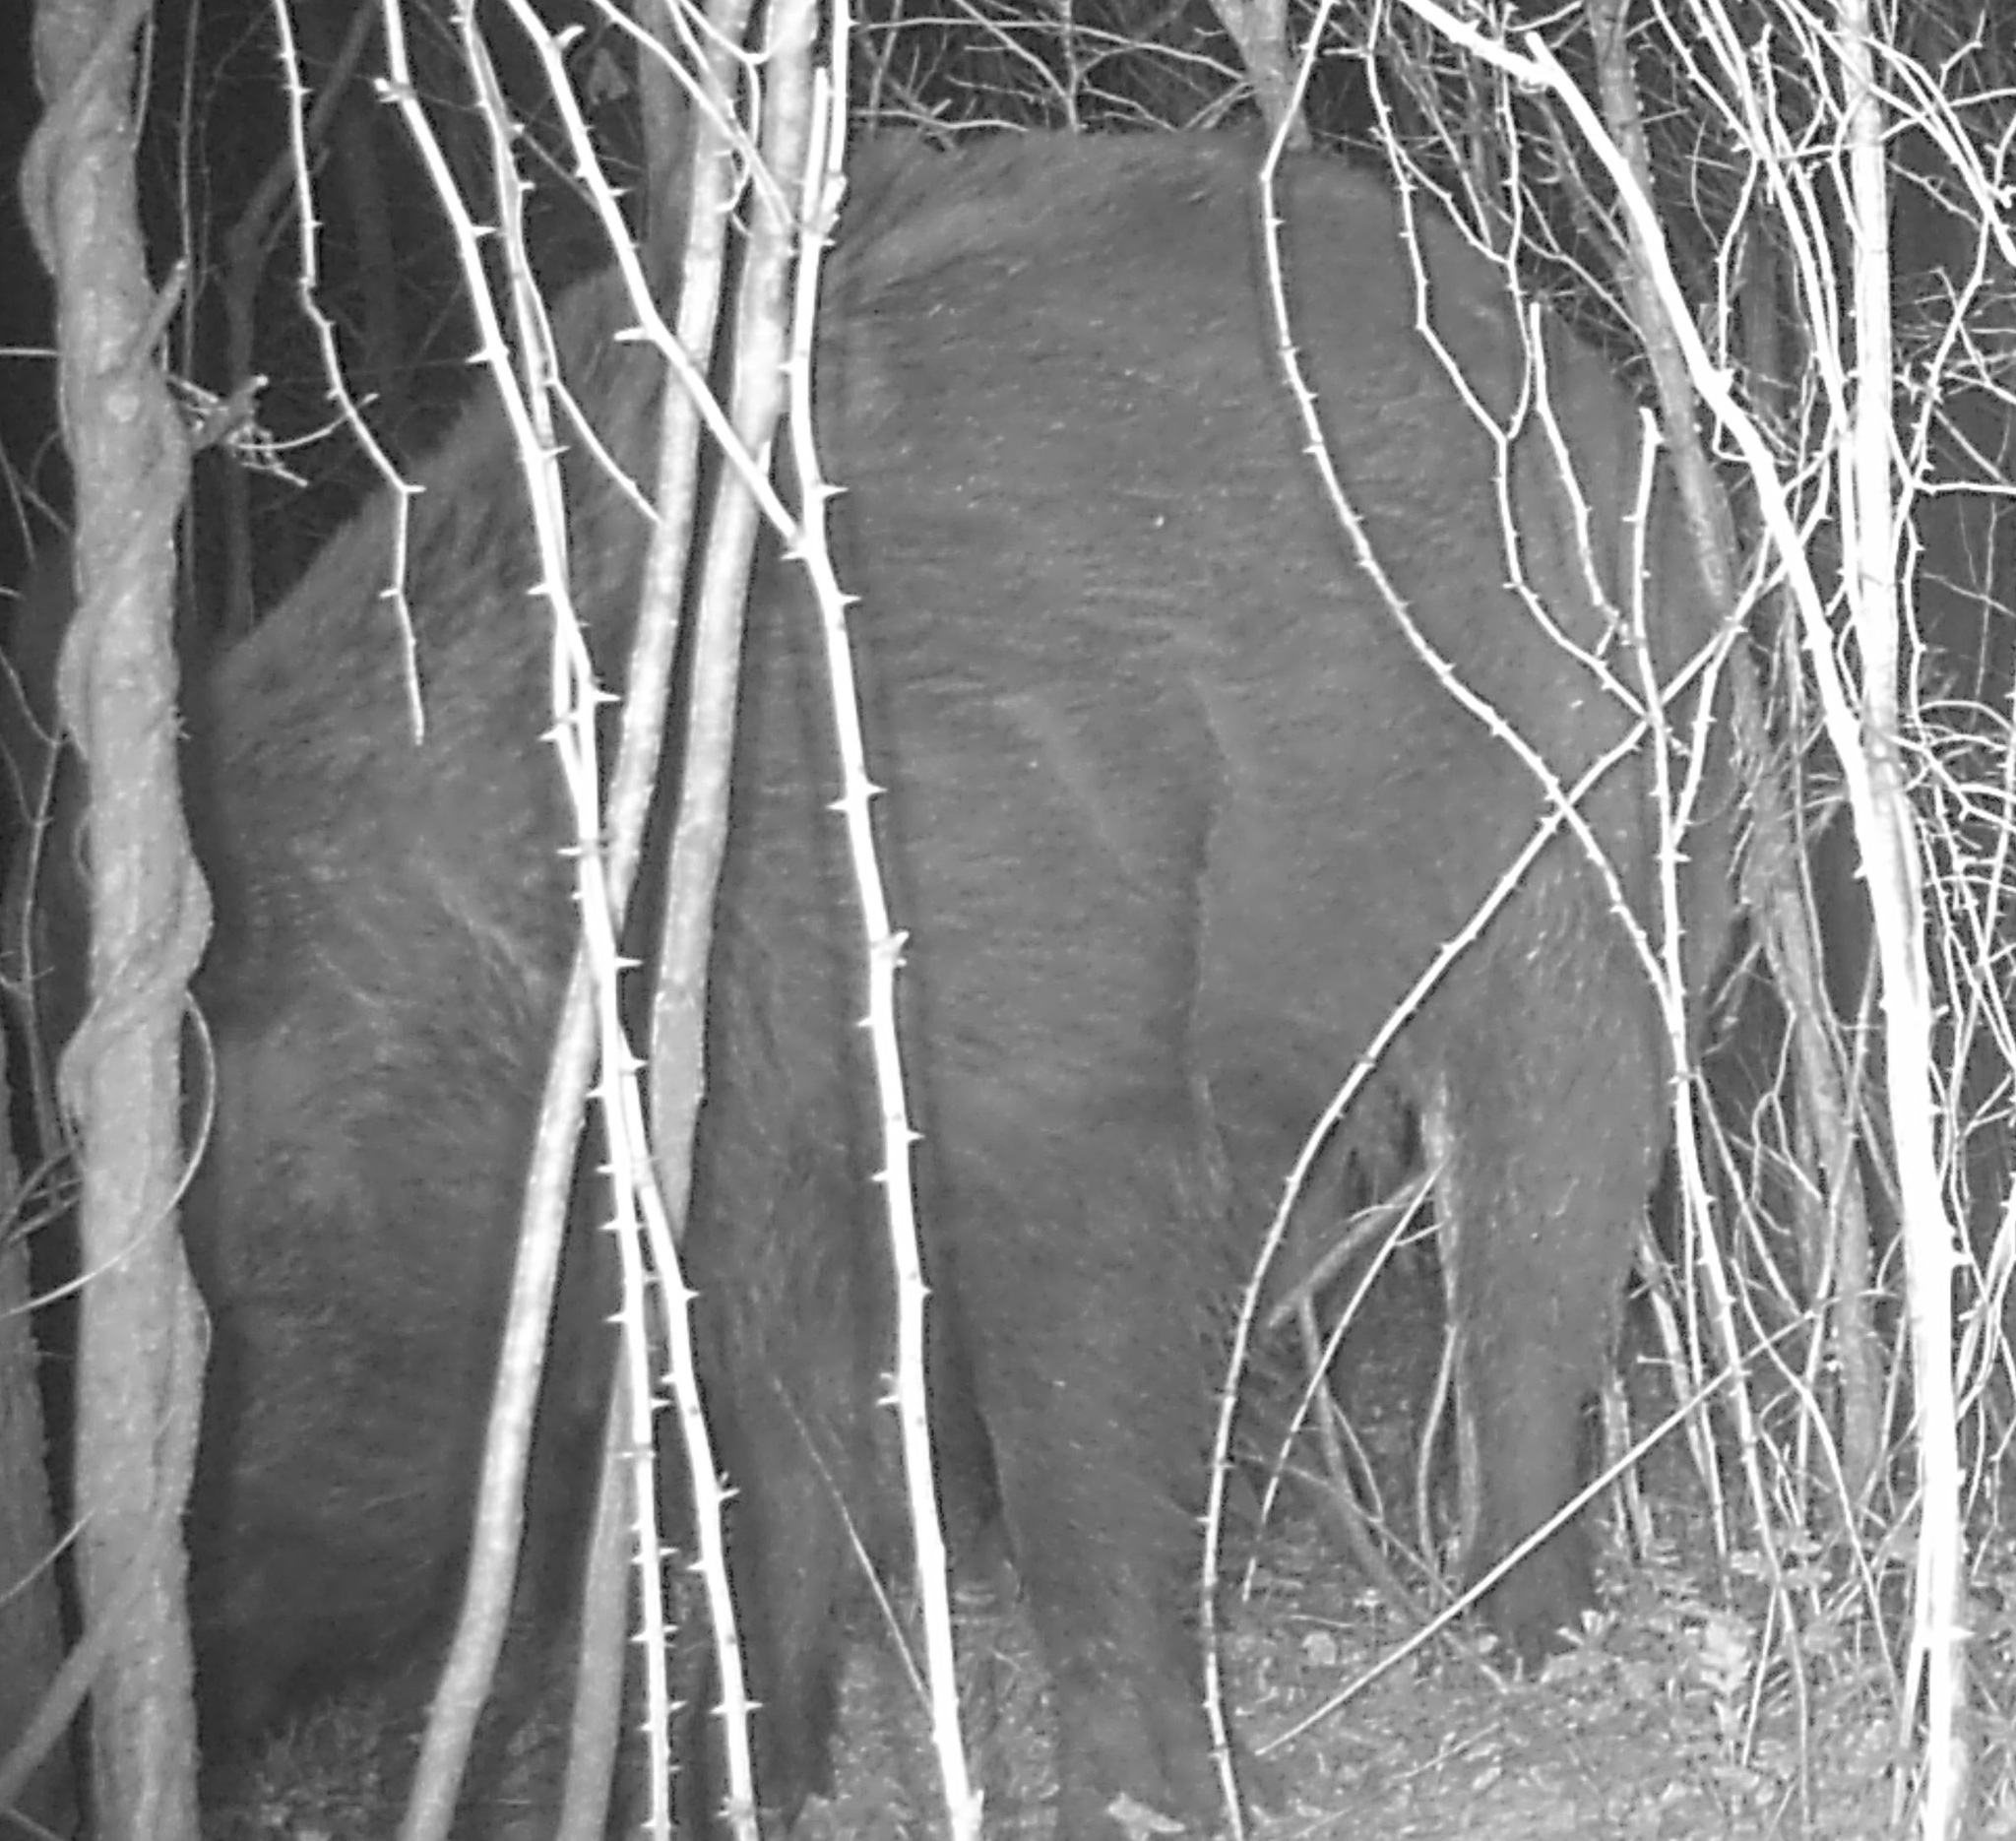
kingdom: Animalia
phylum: Chordata
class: Mammalia
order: Artiodactyla
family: Suidae
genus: Sus
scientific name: Sus scrofa
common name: Wild boar
